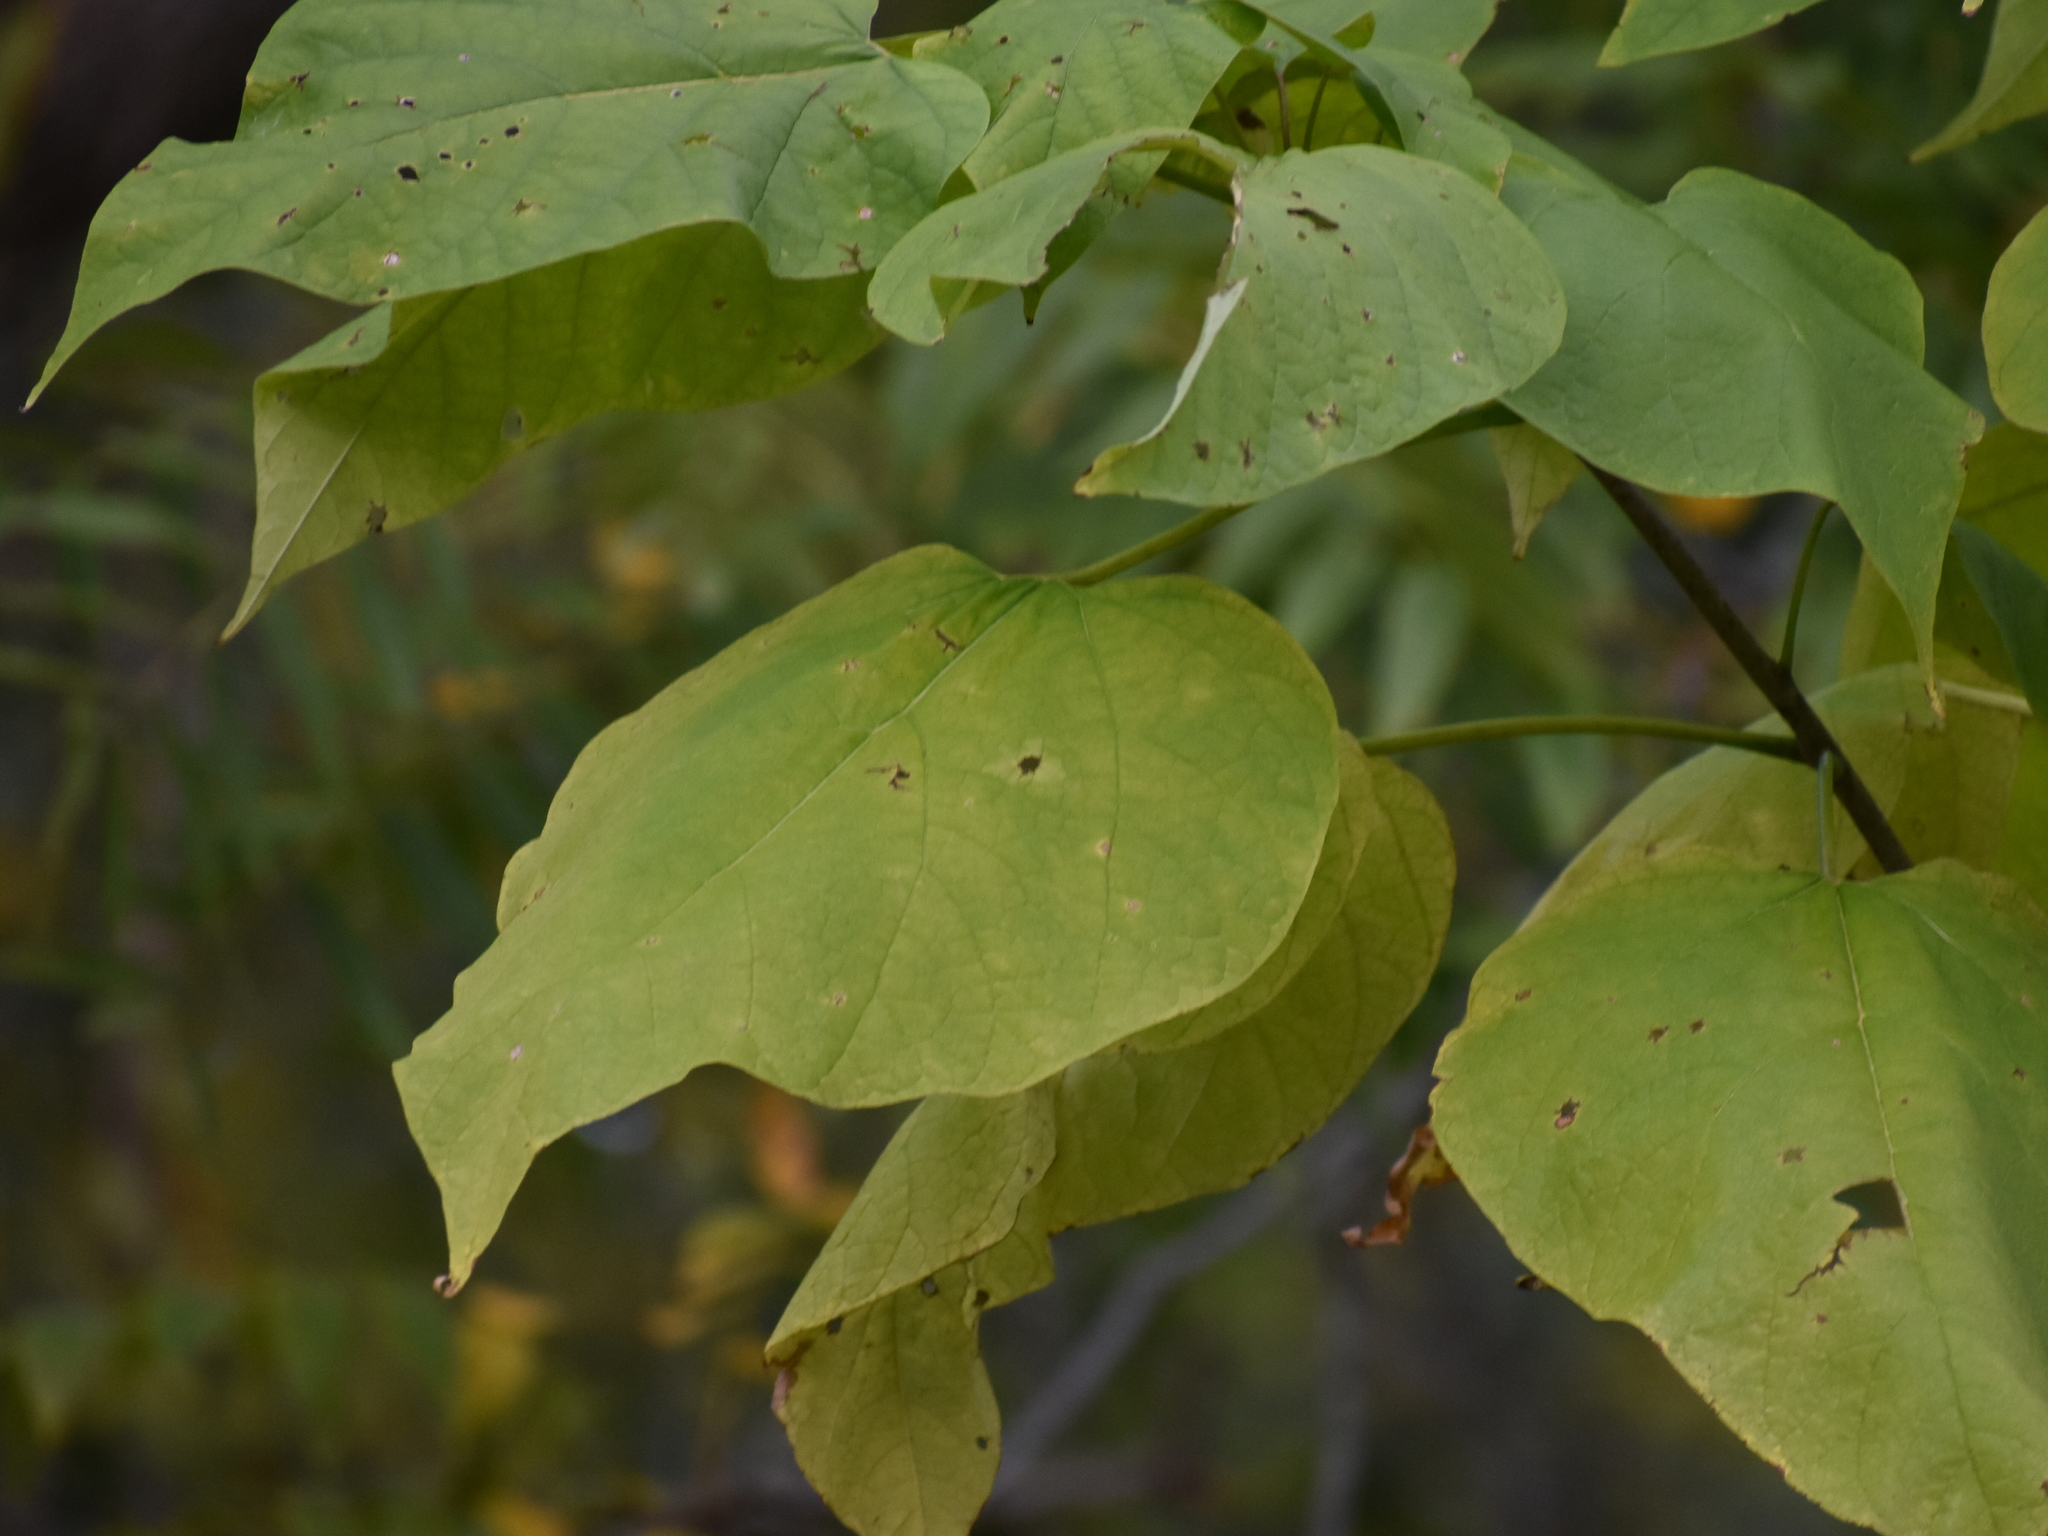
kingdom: Plantae
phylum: Tracheophyta
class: Magnoliopsida
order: Lamiales
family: Bignoniaceae
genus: Catalpa
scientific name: Catalpa speciosa
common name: Northern catalpa
